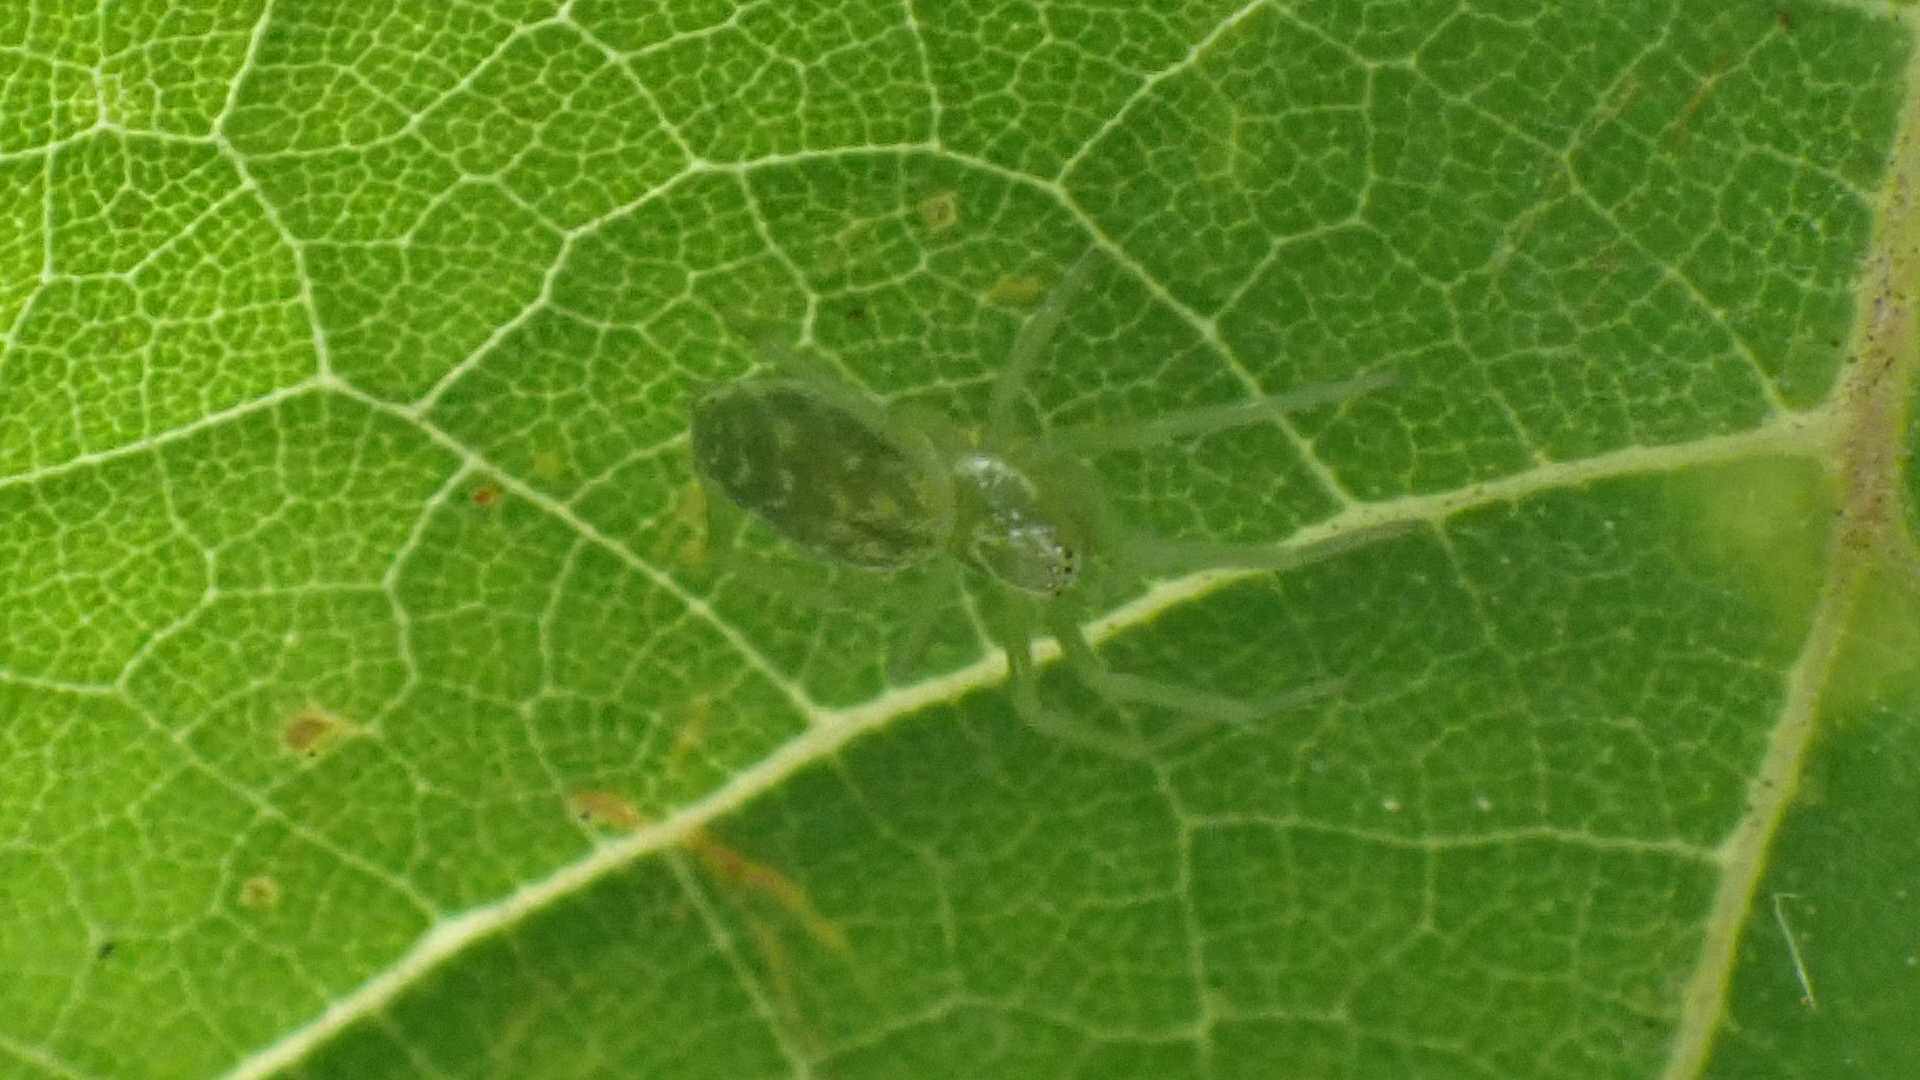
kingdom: Animalia
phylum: Arthropoda
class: Arachnida
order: Araneae
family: Dictynidae
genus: Nigma
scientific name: Nigma walckenaeri
